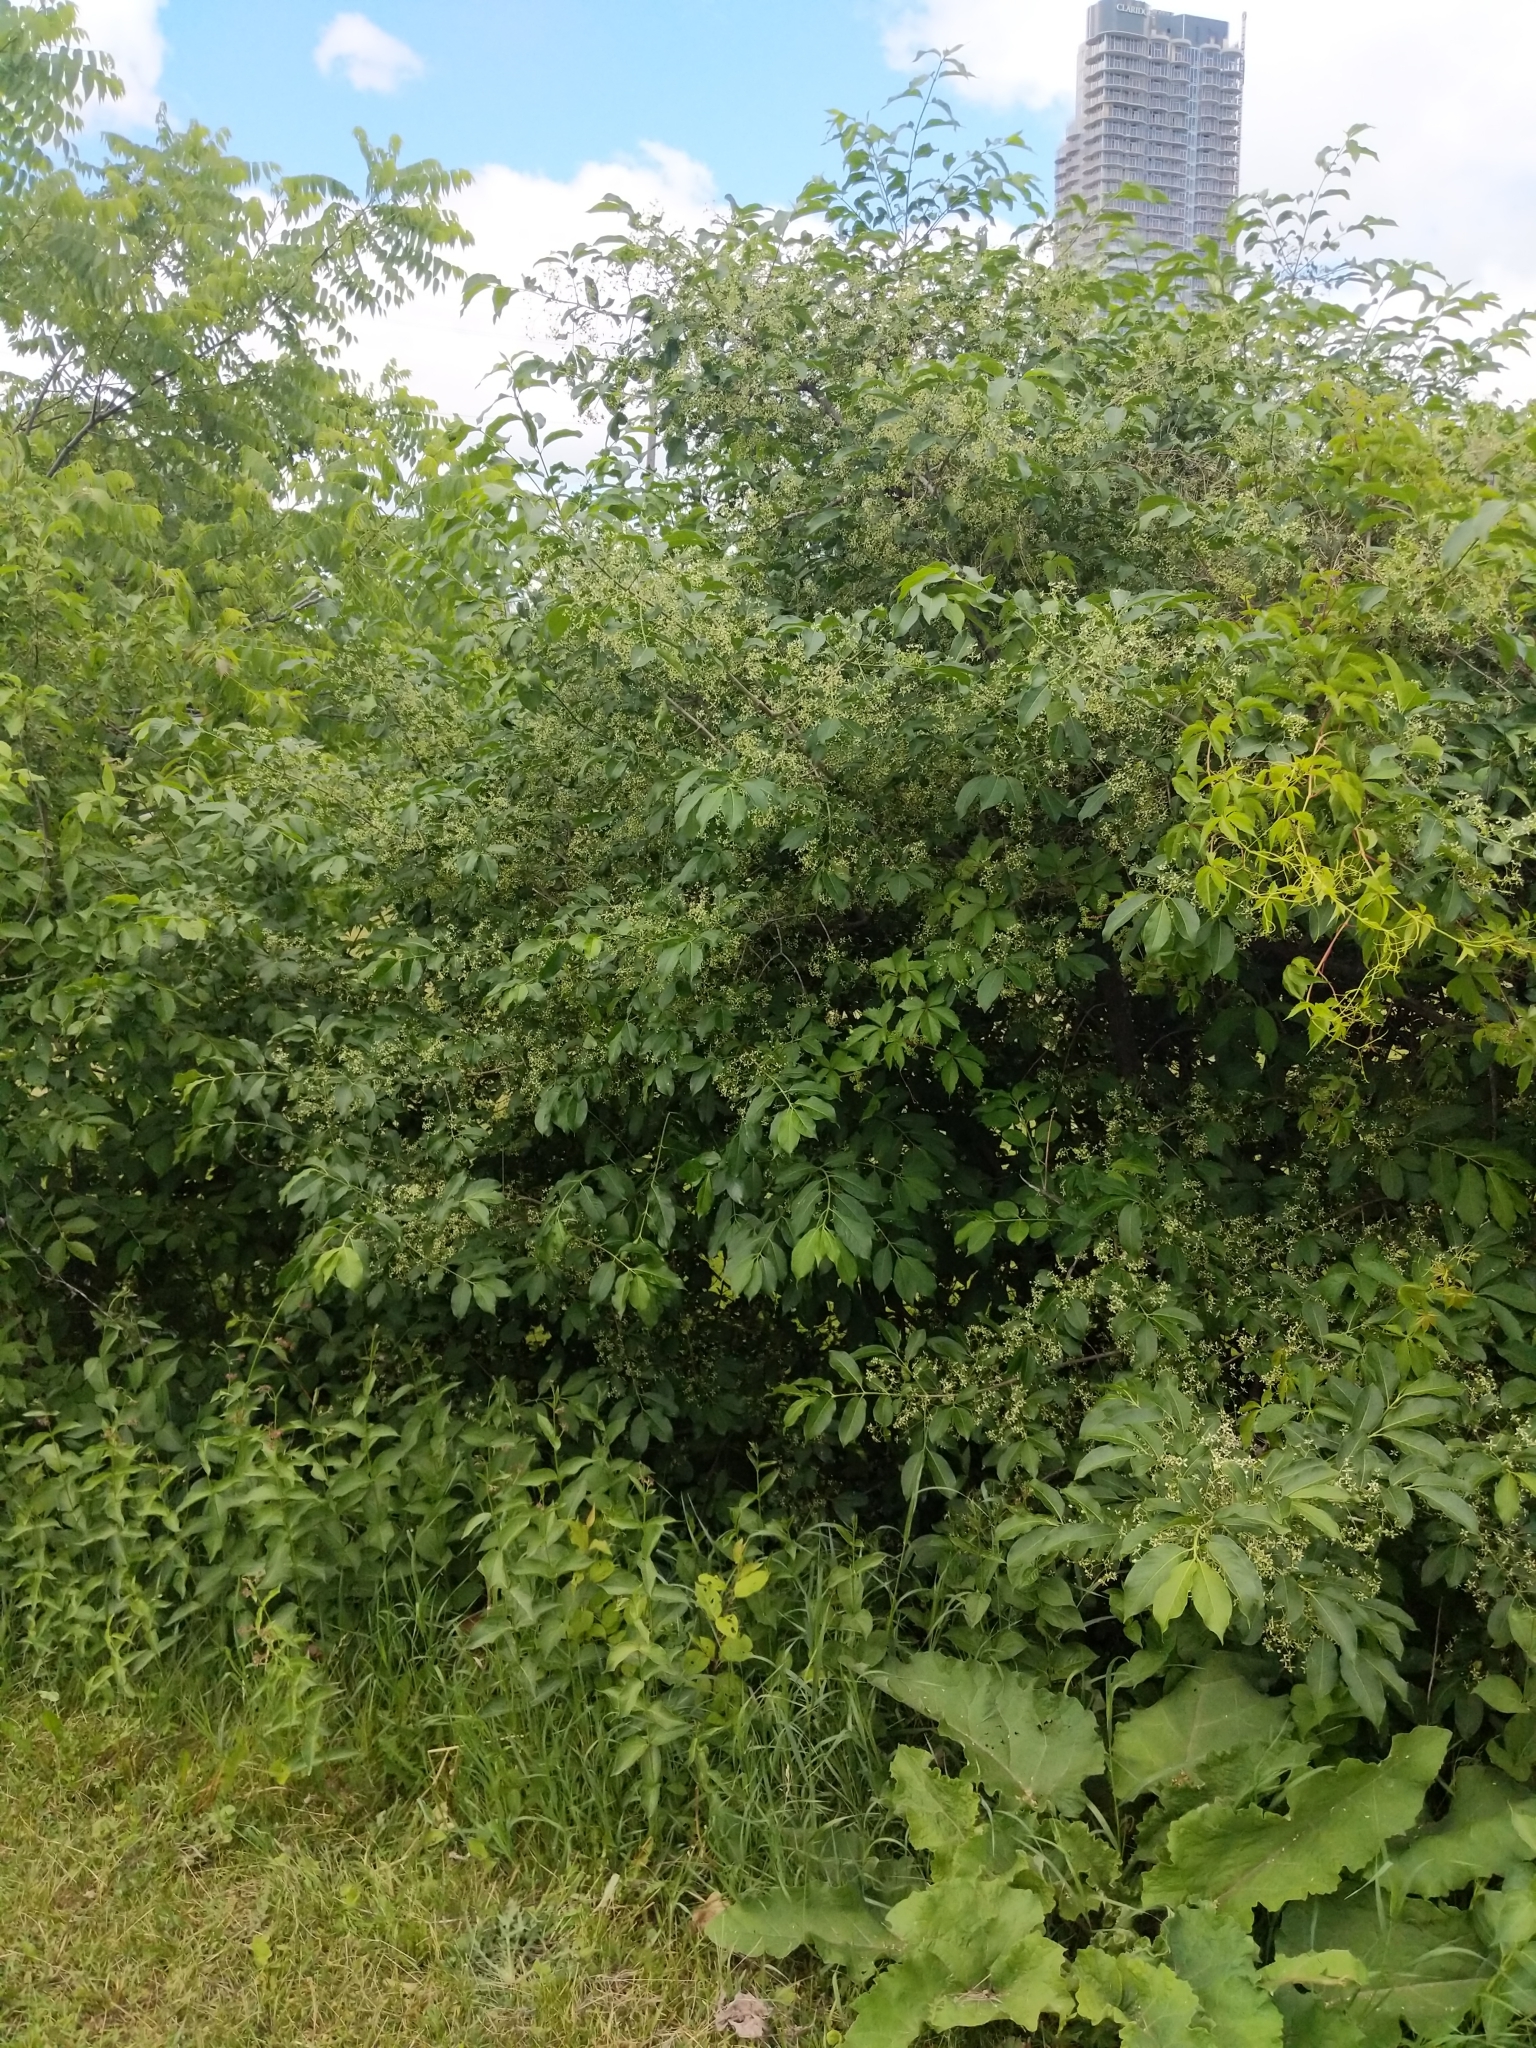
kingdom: Plantae
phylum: Tracheophyta
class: Magnoliopsida
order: Celastrales
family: Celastraceae
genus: Euonymus
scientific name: Euonymus hamiltonianus
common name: Hamilton's spindletree
